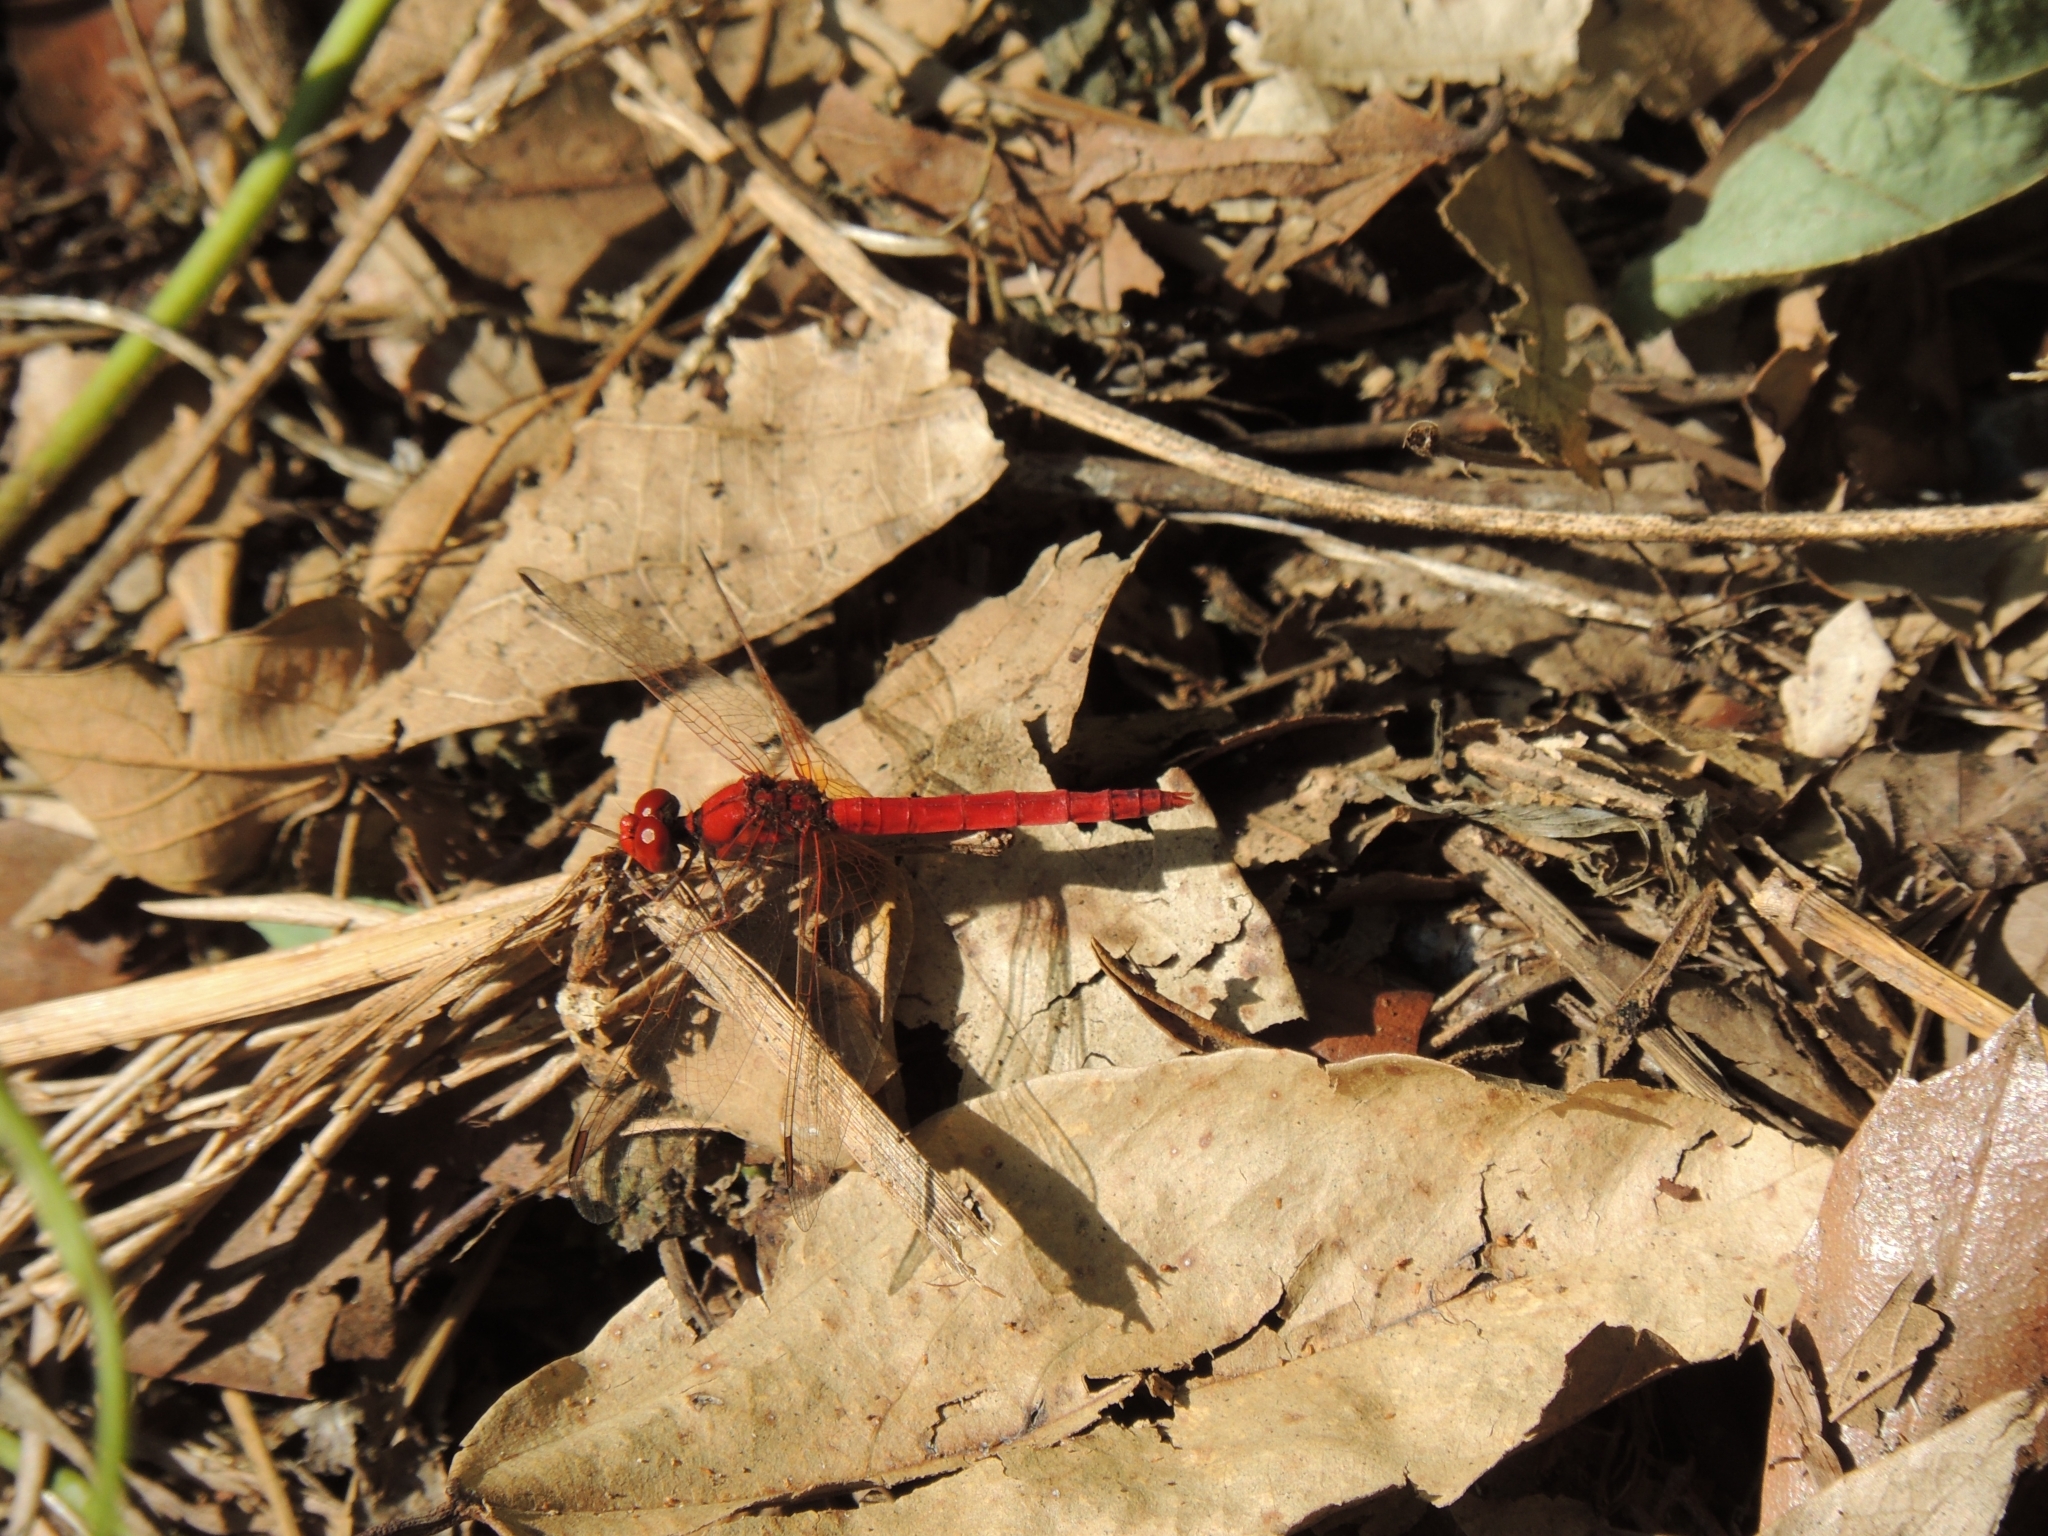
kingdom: Animalia
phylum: Arthropoda
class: Insecta
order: Odonata
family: Libellulidae
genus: Diplacodes
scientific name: Diplacodes haematodes
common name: Scarlet percher
